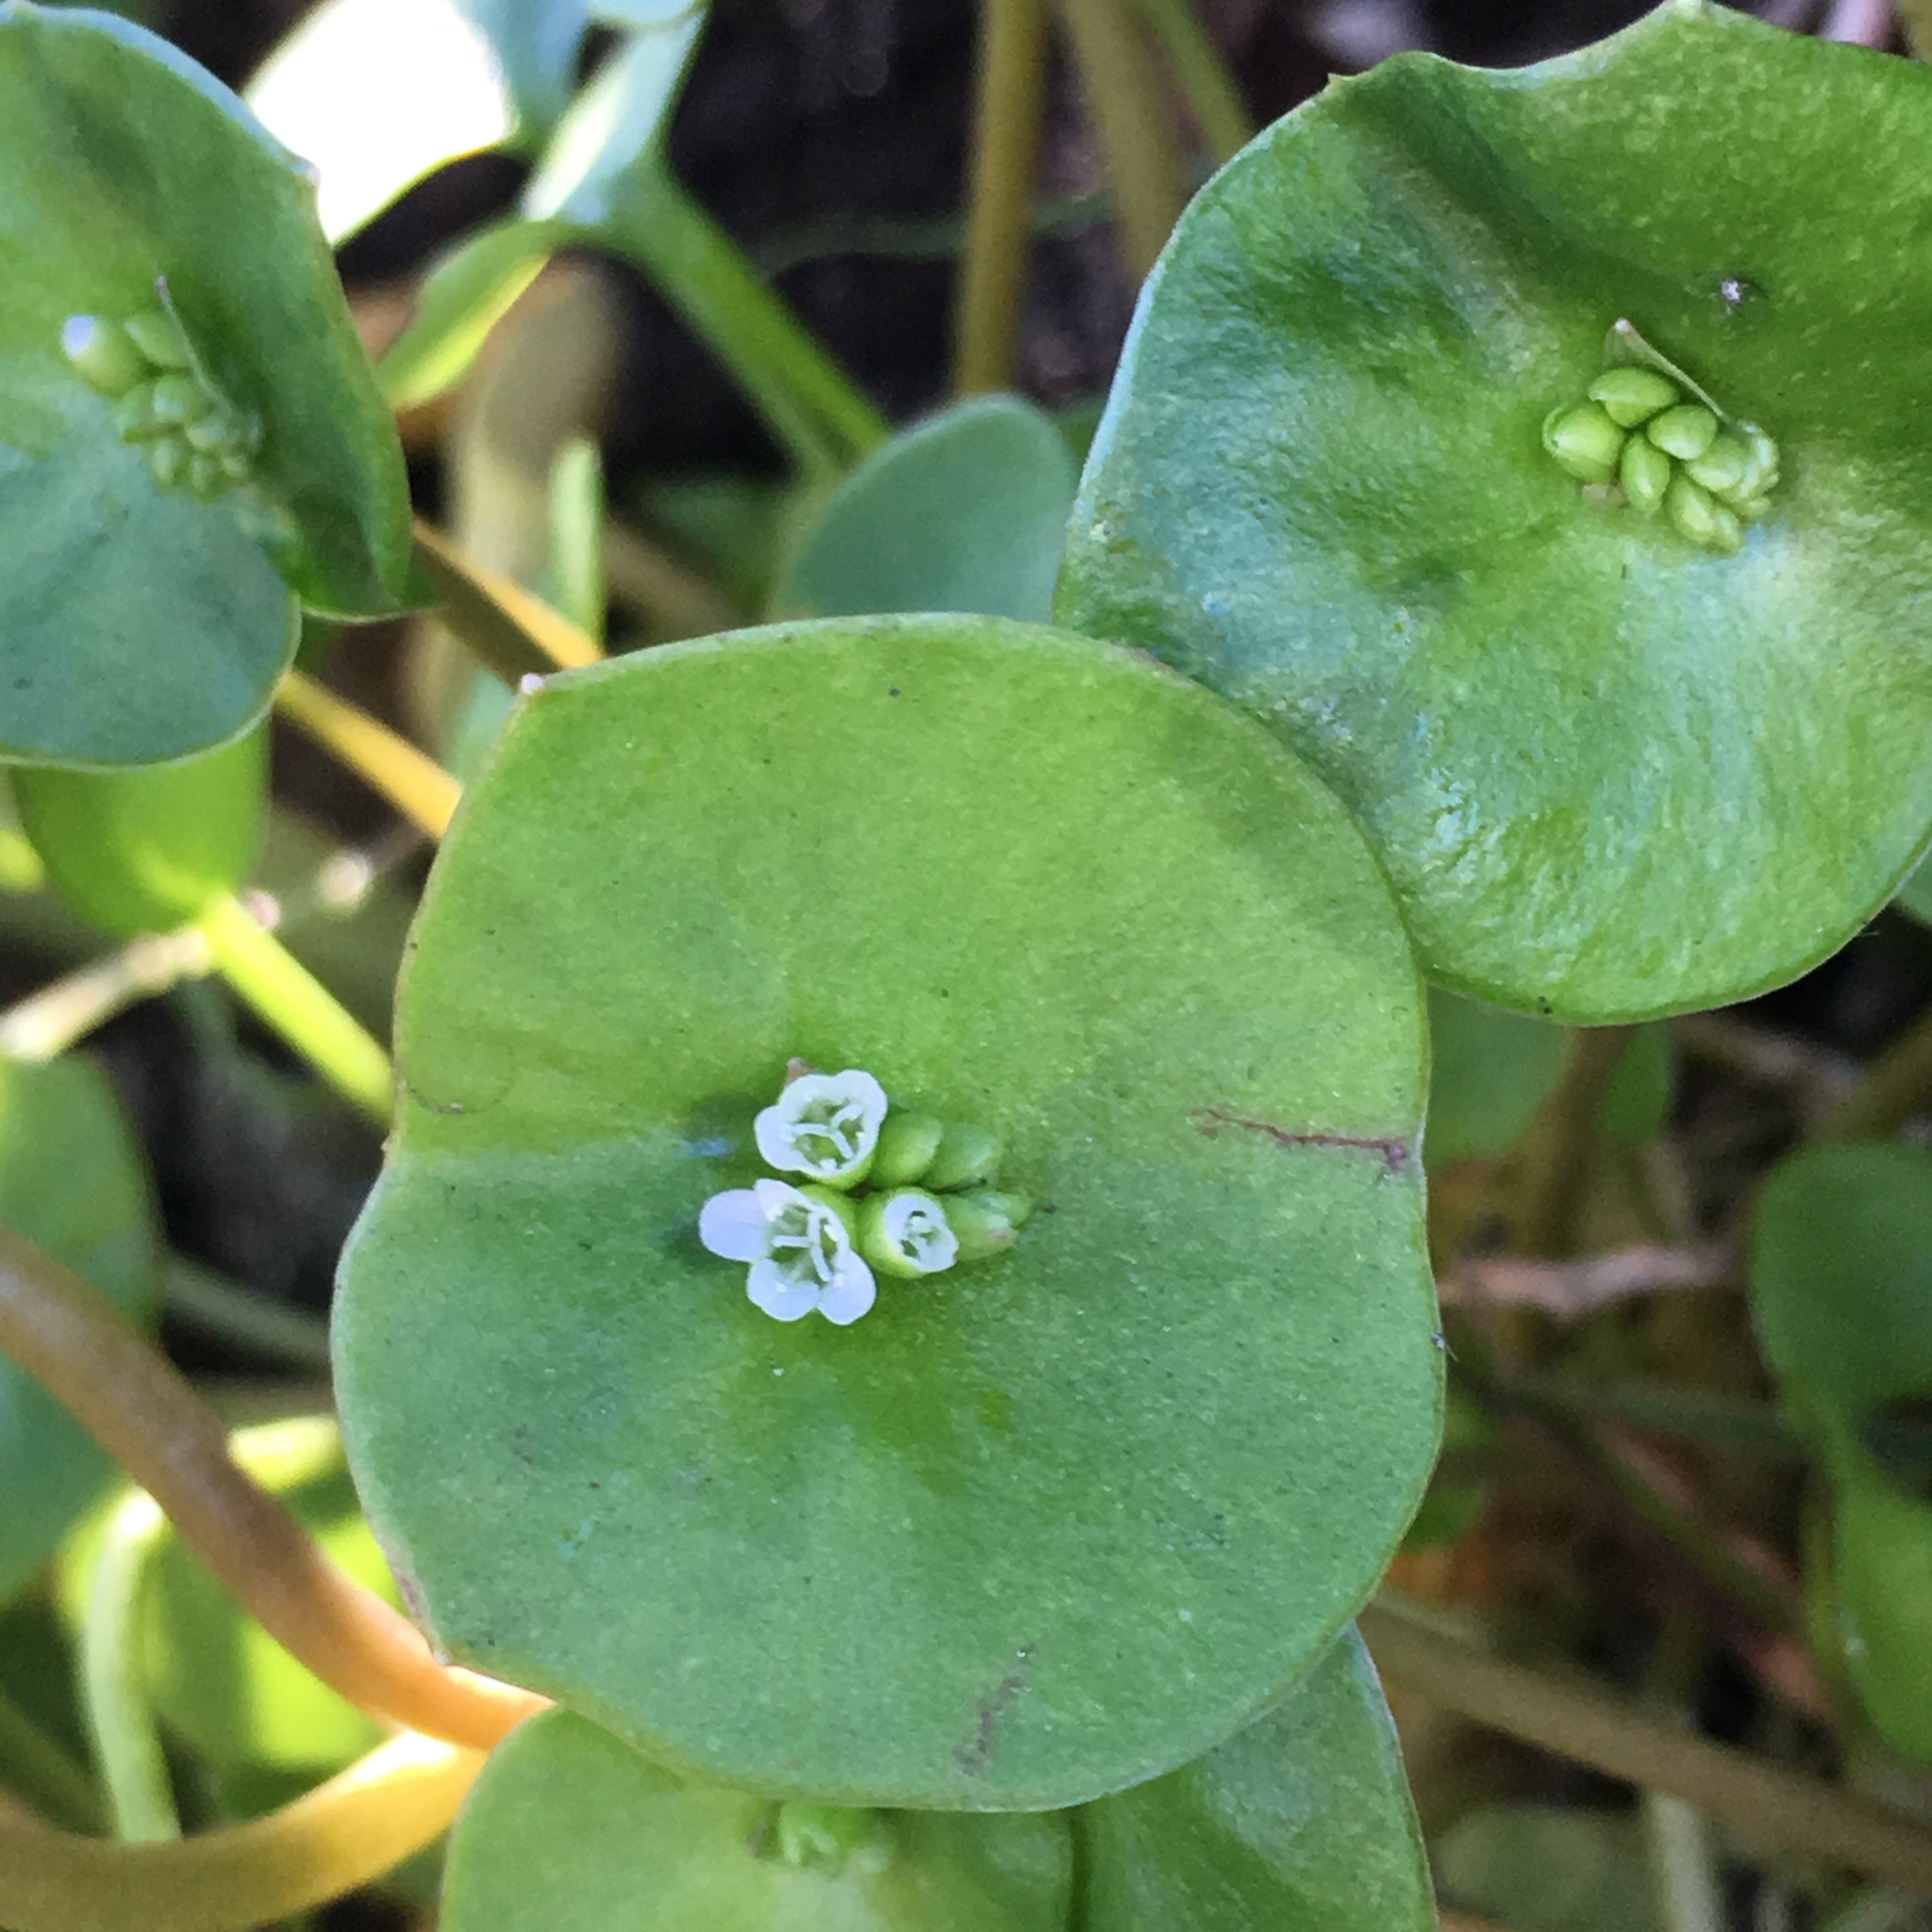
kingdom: Plantae
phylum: Tracheophyta
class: Magnoliopsida
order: Caryophyllales
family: Montiaceae
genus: Claytonia
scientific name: Claytonia perfoliata
